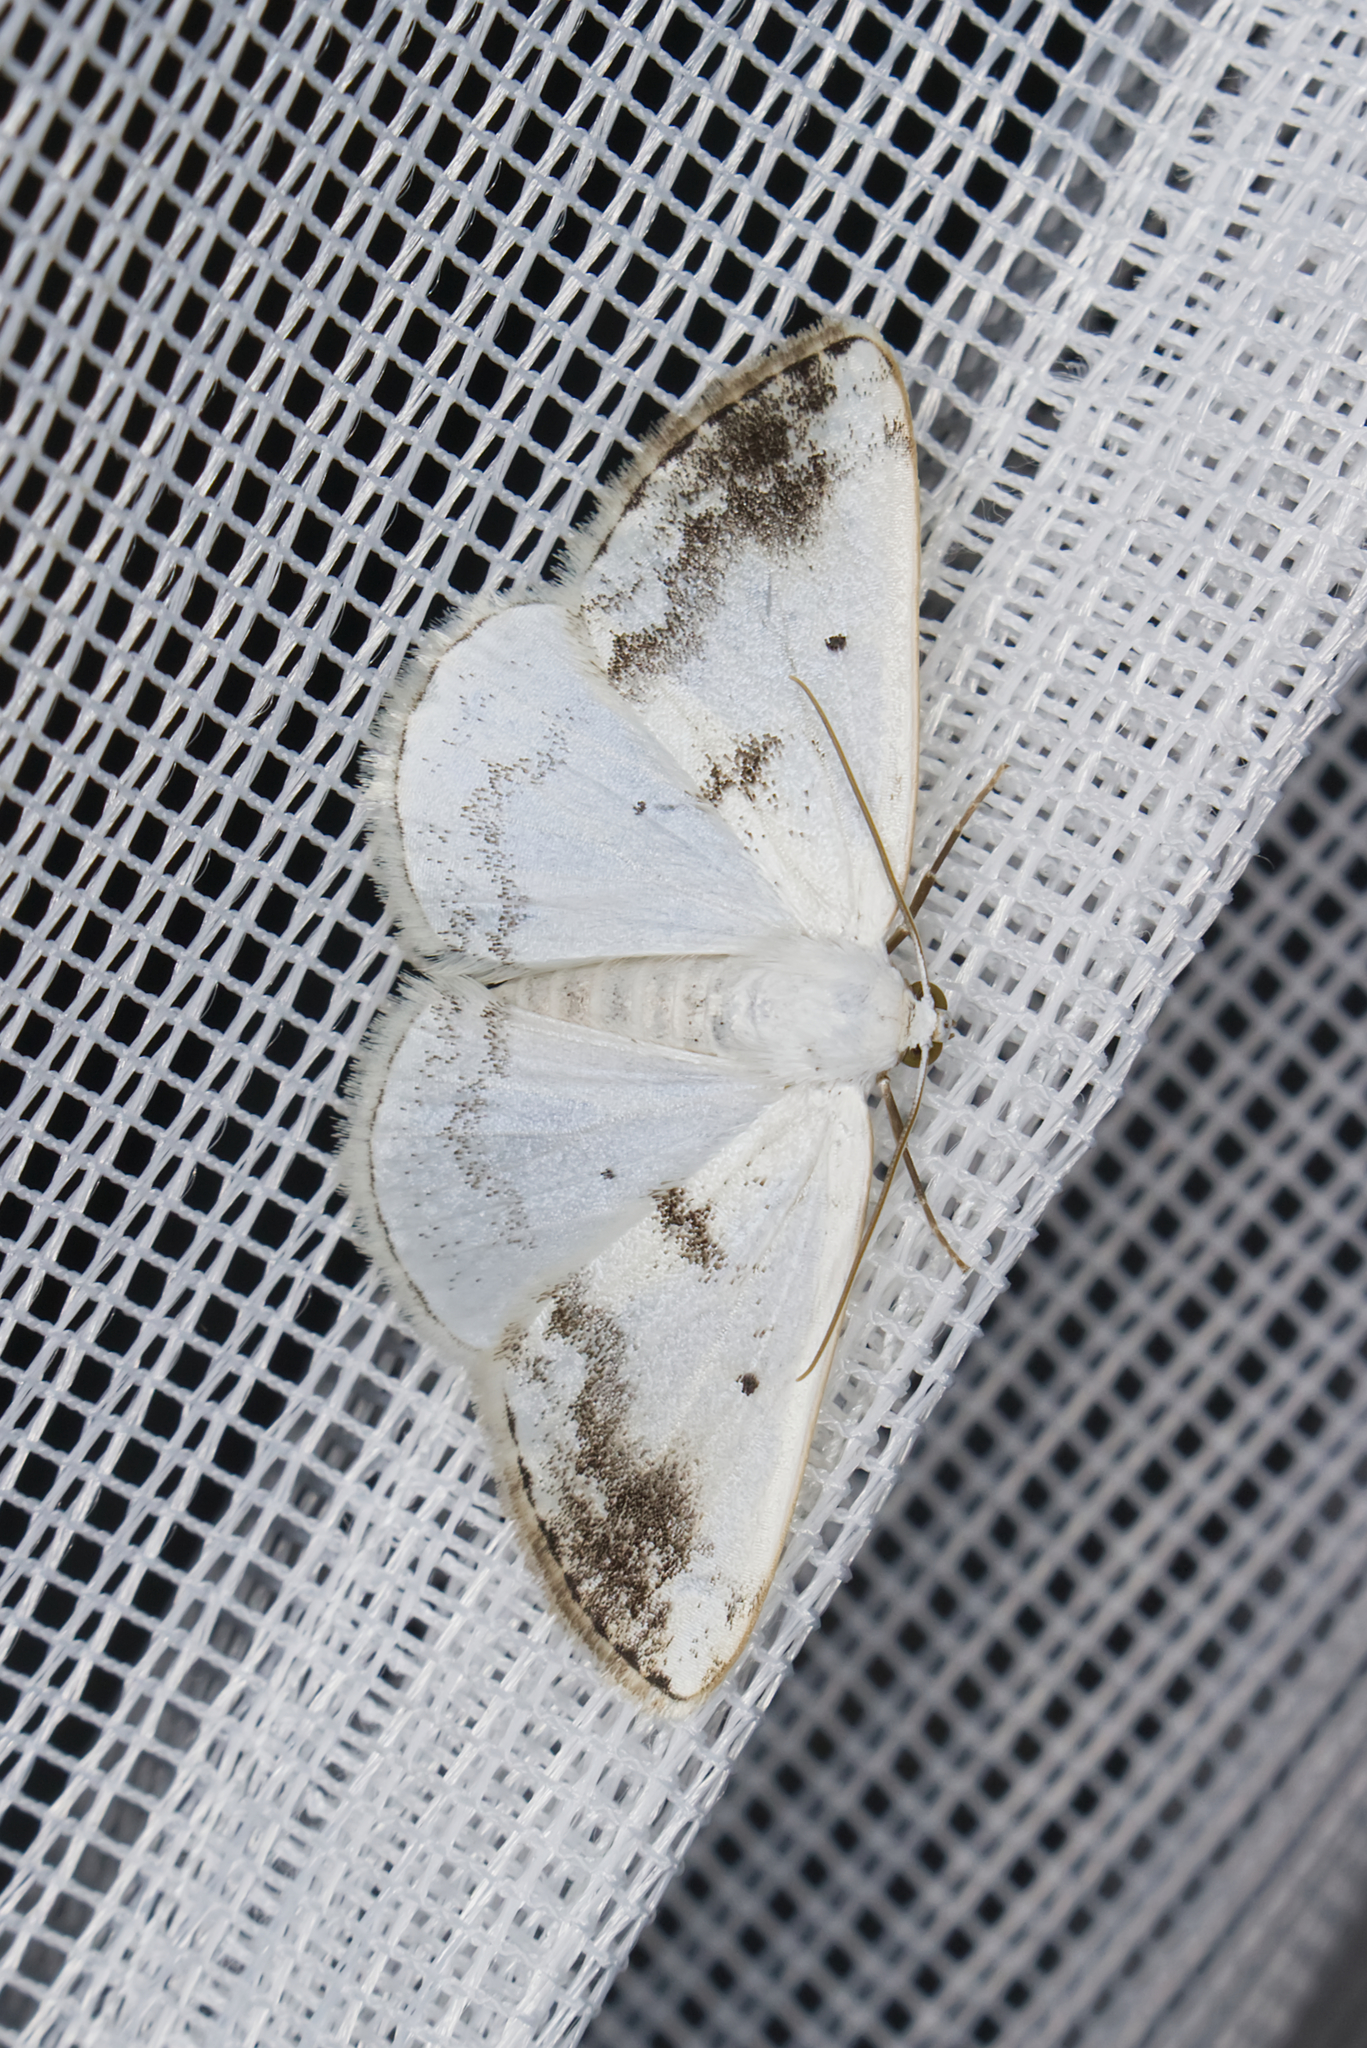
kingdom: Animalia
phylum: Arthropoda
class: Insecta
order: Lepidoptera
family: Geometridae
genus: Lomographa
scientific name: Lomographa temerata
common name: Clouded silver
